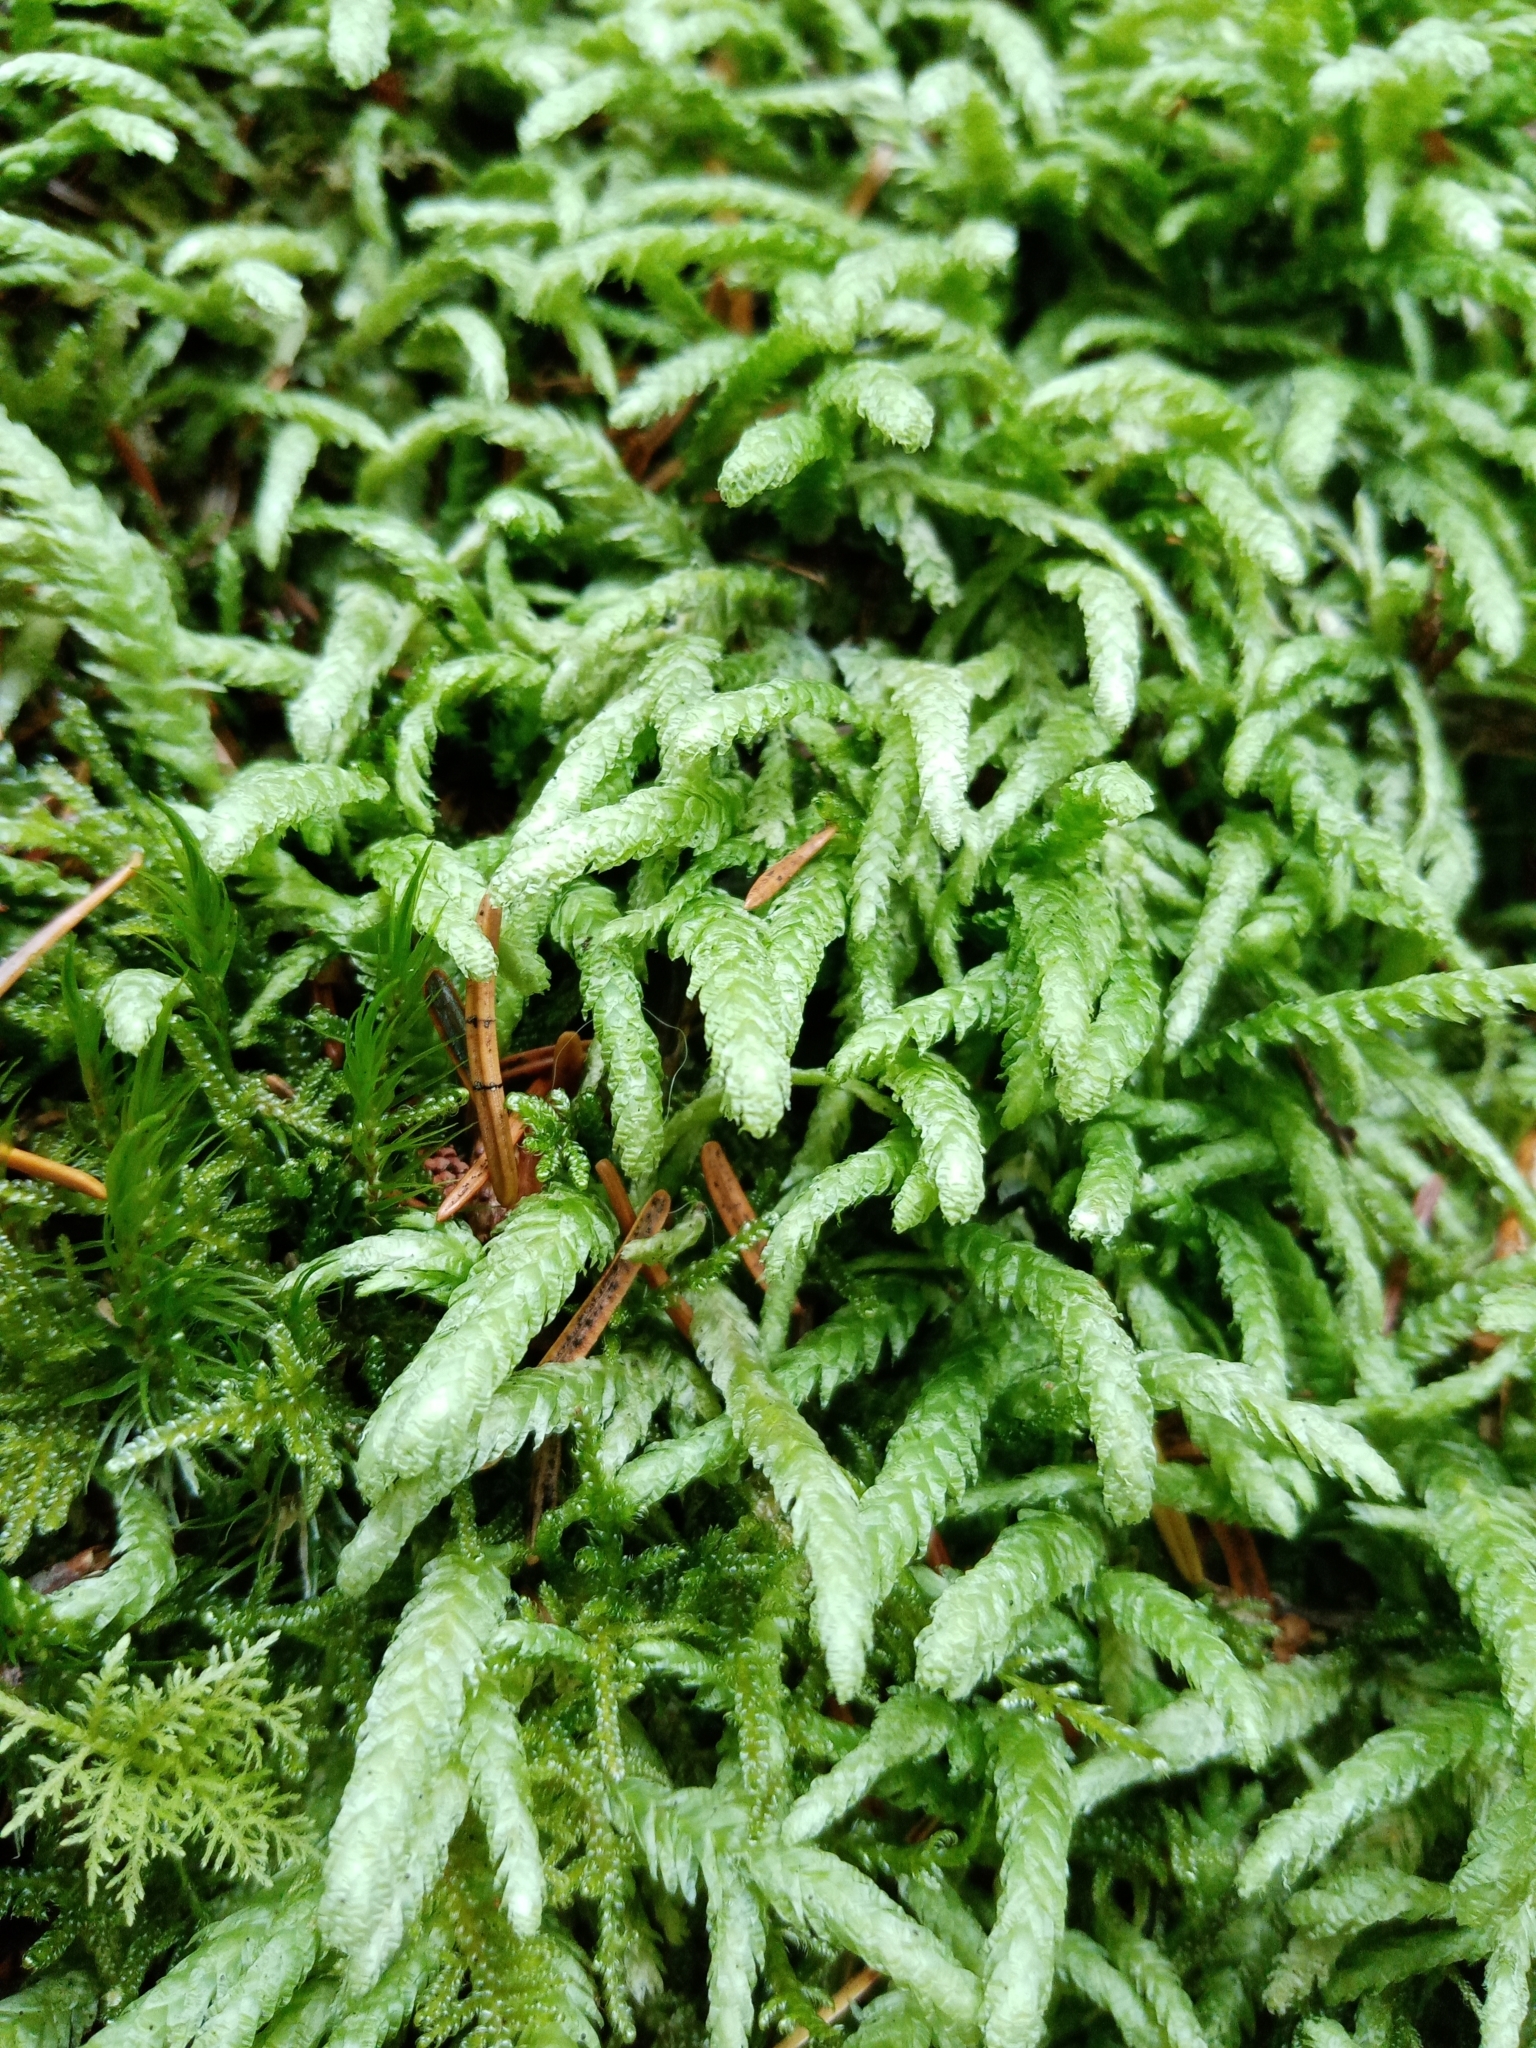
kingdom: Plantae
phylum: Bryophyta
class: Bryopsida
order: Hypnales
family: Plagiotheciaceae
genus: Plagiothecium
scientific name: Plagiothecium undulatum
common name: Waved silk-moss
